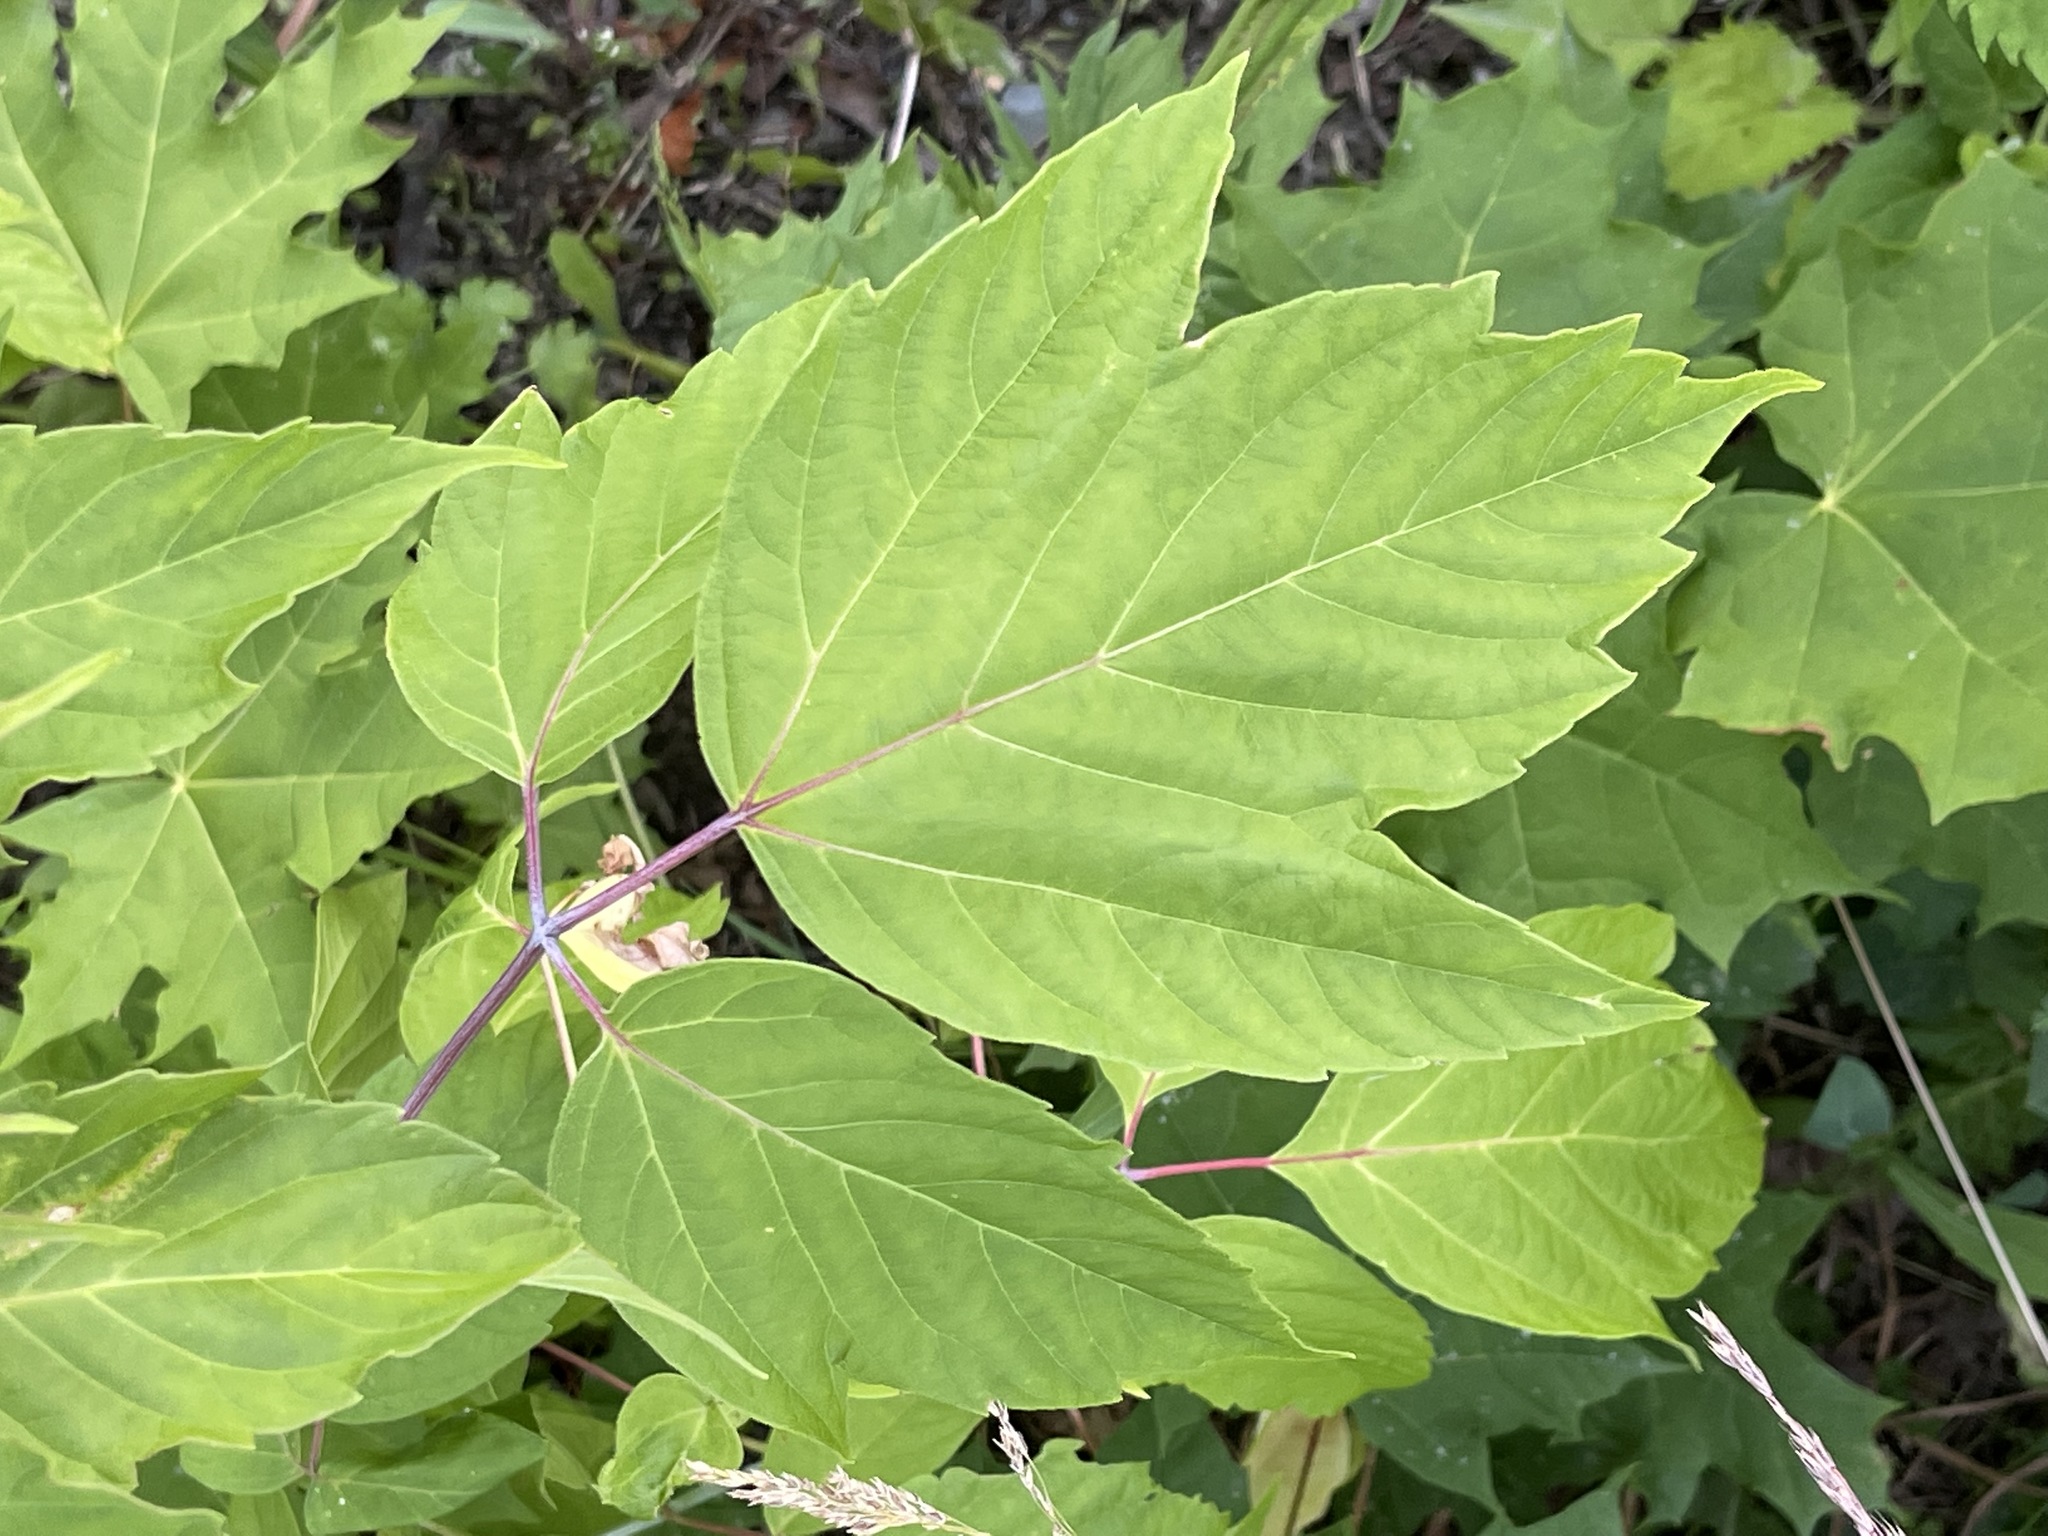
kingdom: Plantae
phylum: Tracheophyta
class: Magnoliopsida
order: Sapindales
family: Sapindaceae
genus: Acer
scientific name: Acer negundo
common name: Ashleaf maple
